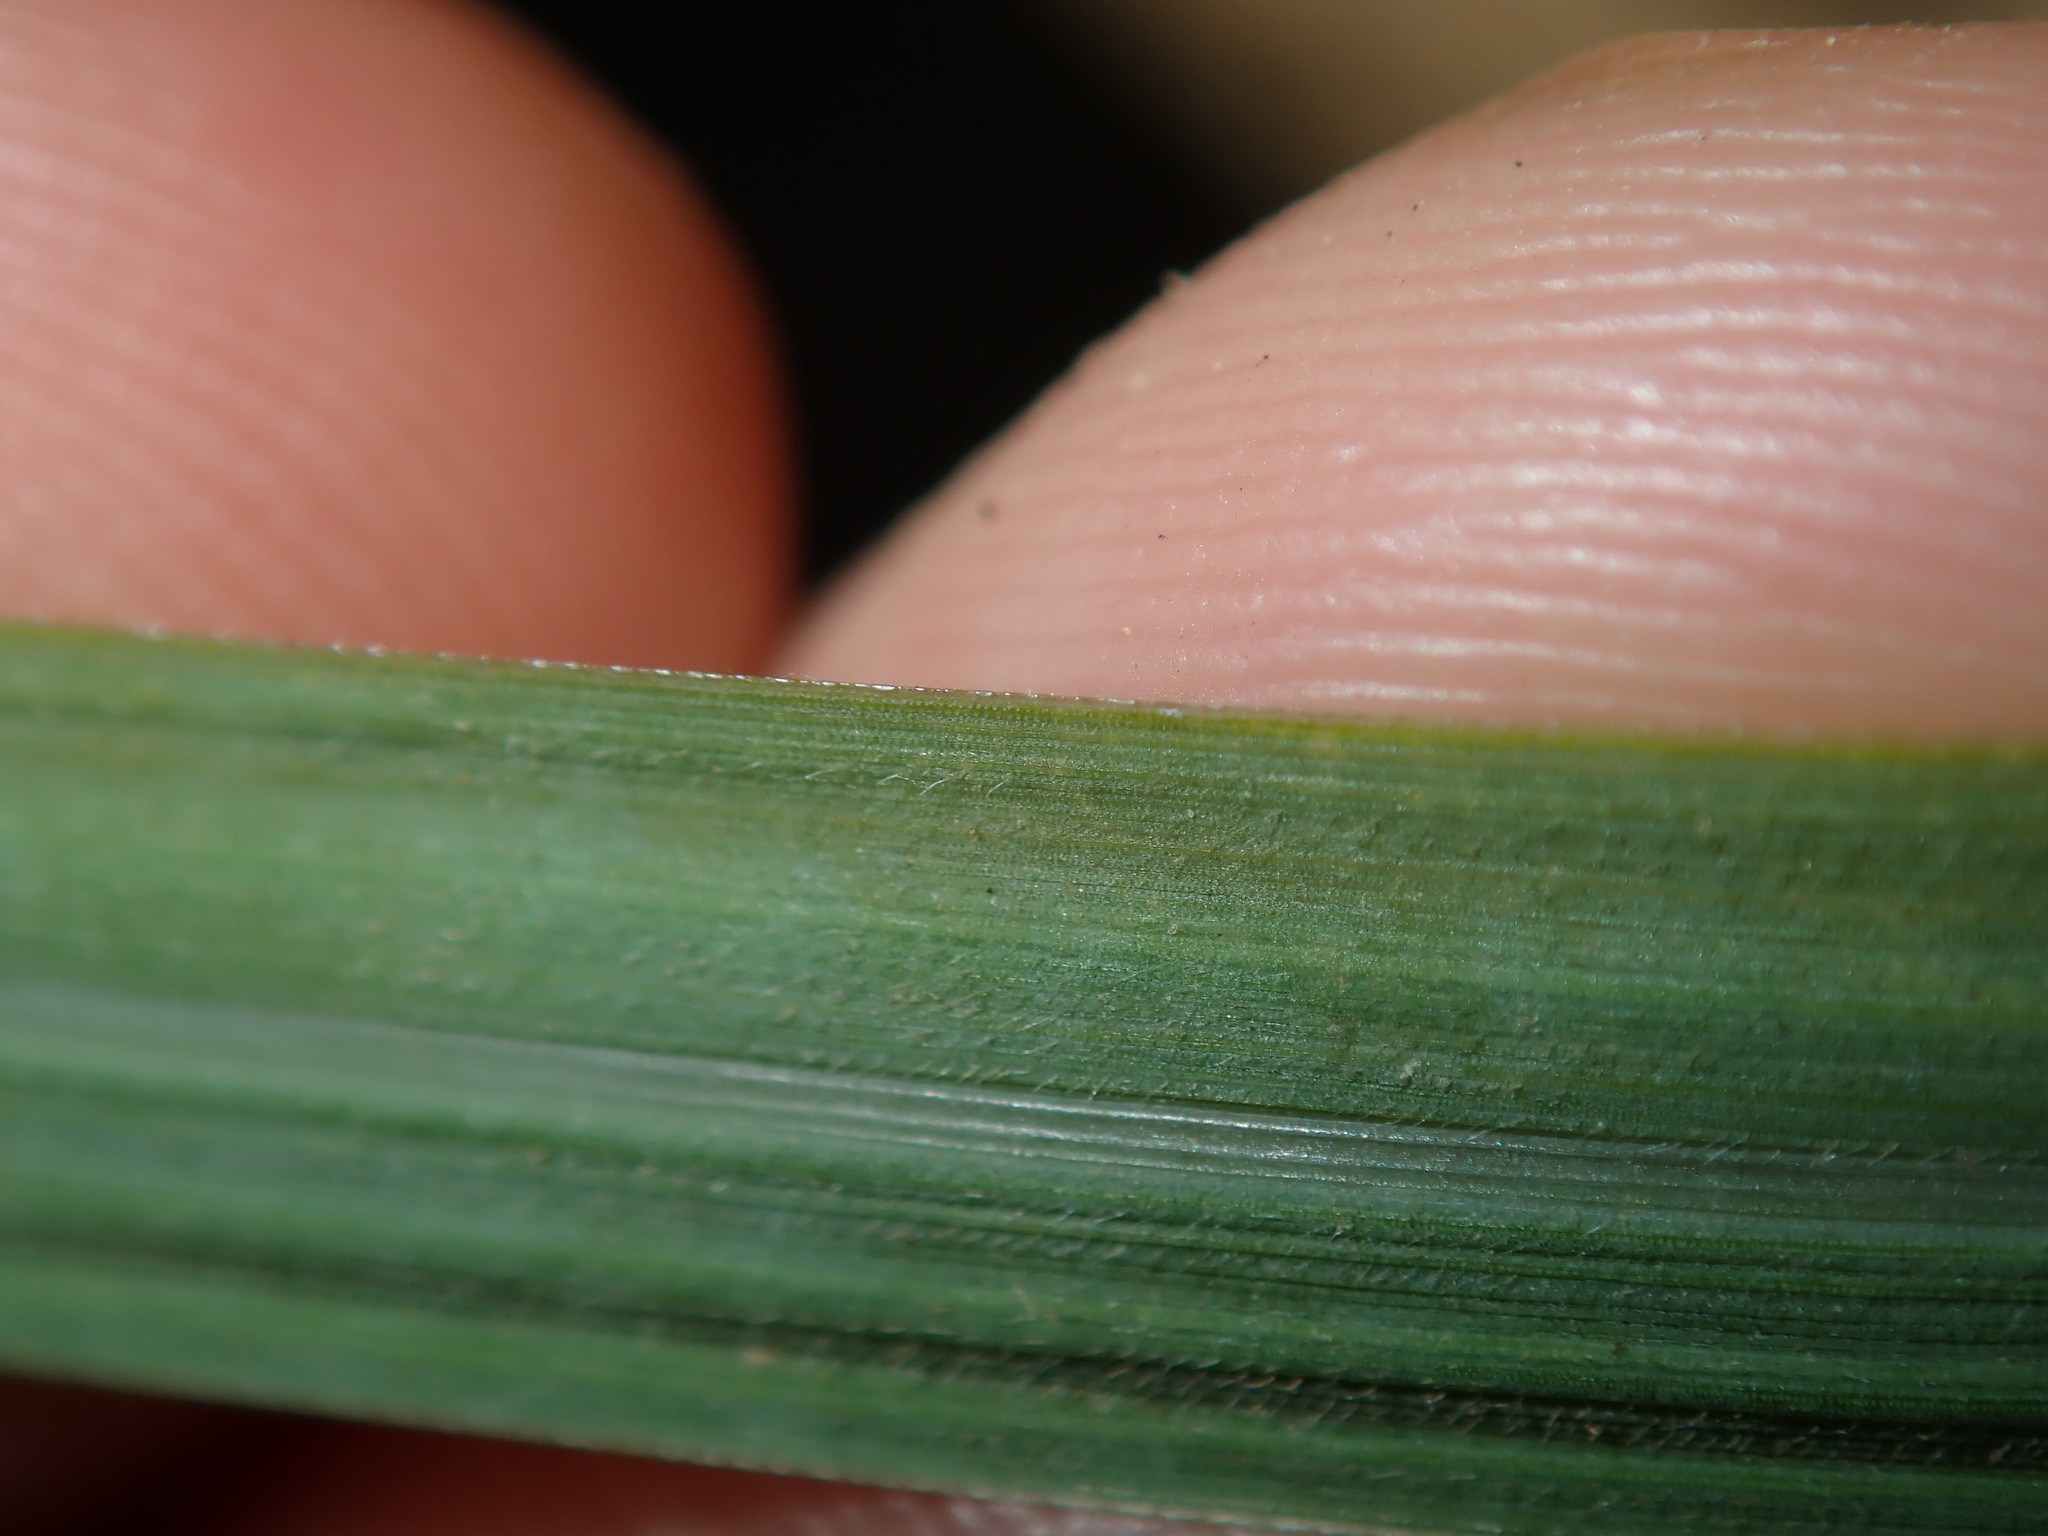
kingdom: Plantae
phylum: Tracheophyta
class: Liliopsida
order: Poales
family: Poaceae
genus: Paspalum
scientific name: Paspalum urvillei
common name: Vasey's grass
